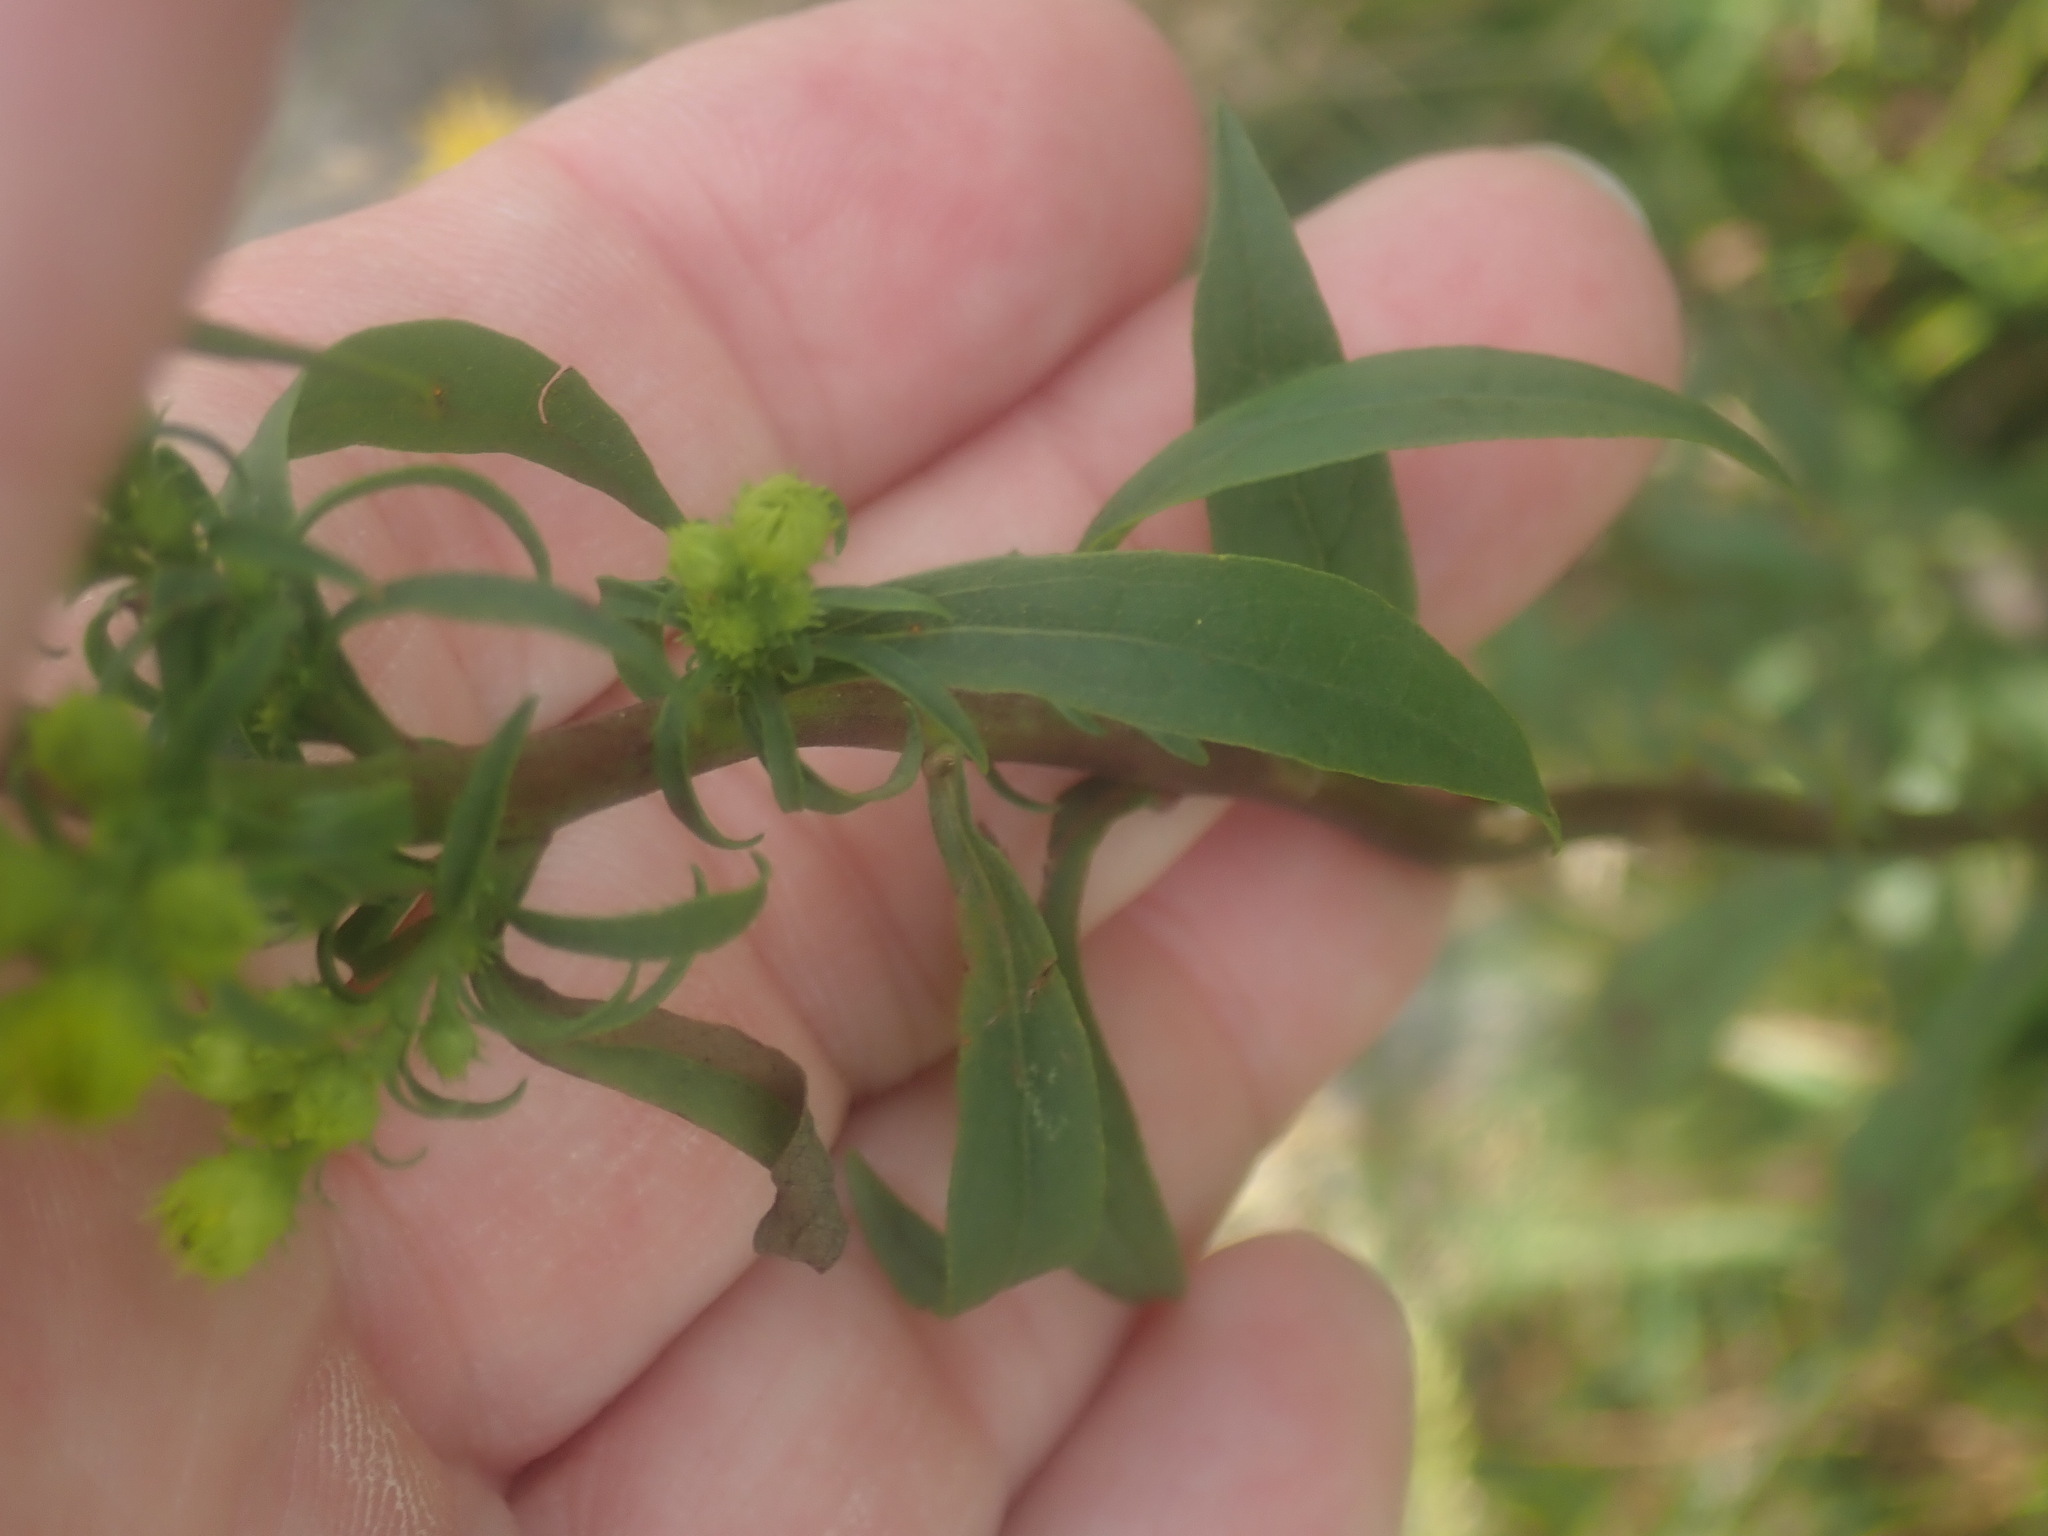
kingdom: Plantae
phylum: Tracheophyta
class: Magnoliopsida
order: Asterales
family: Asteraceae
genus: Solidago
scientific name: Solidago squarrosa
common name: Stout goldenrod
